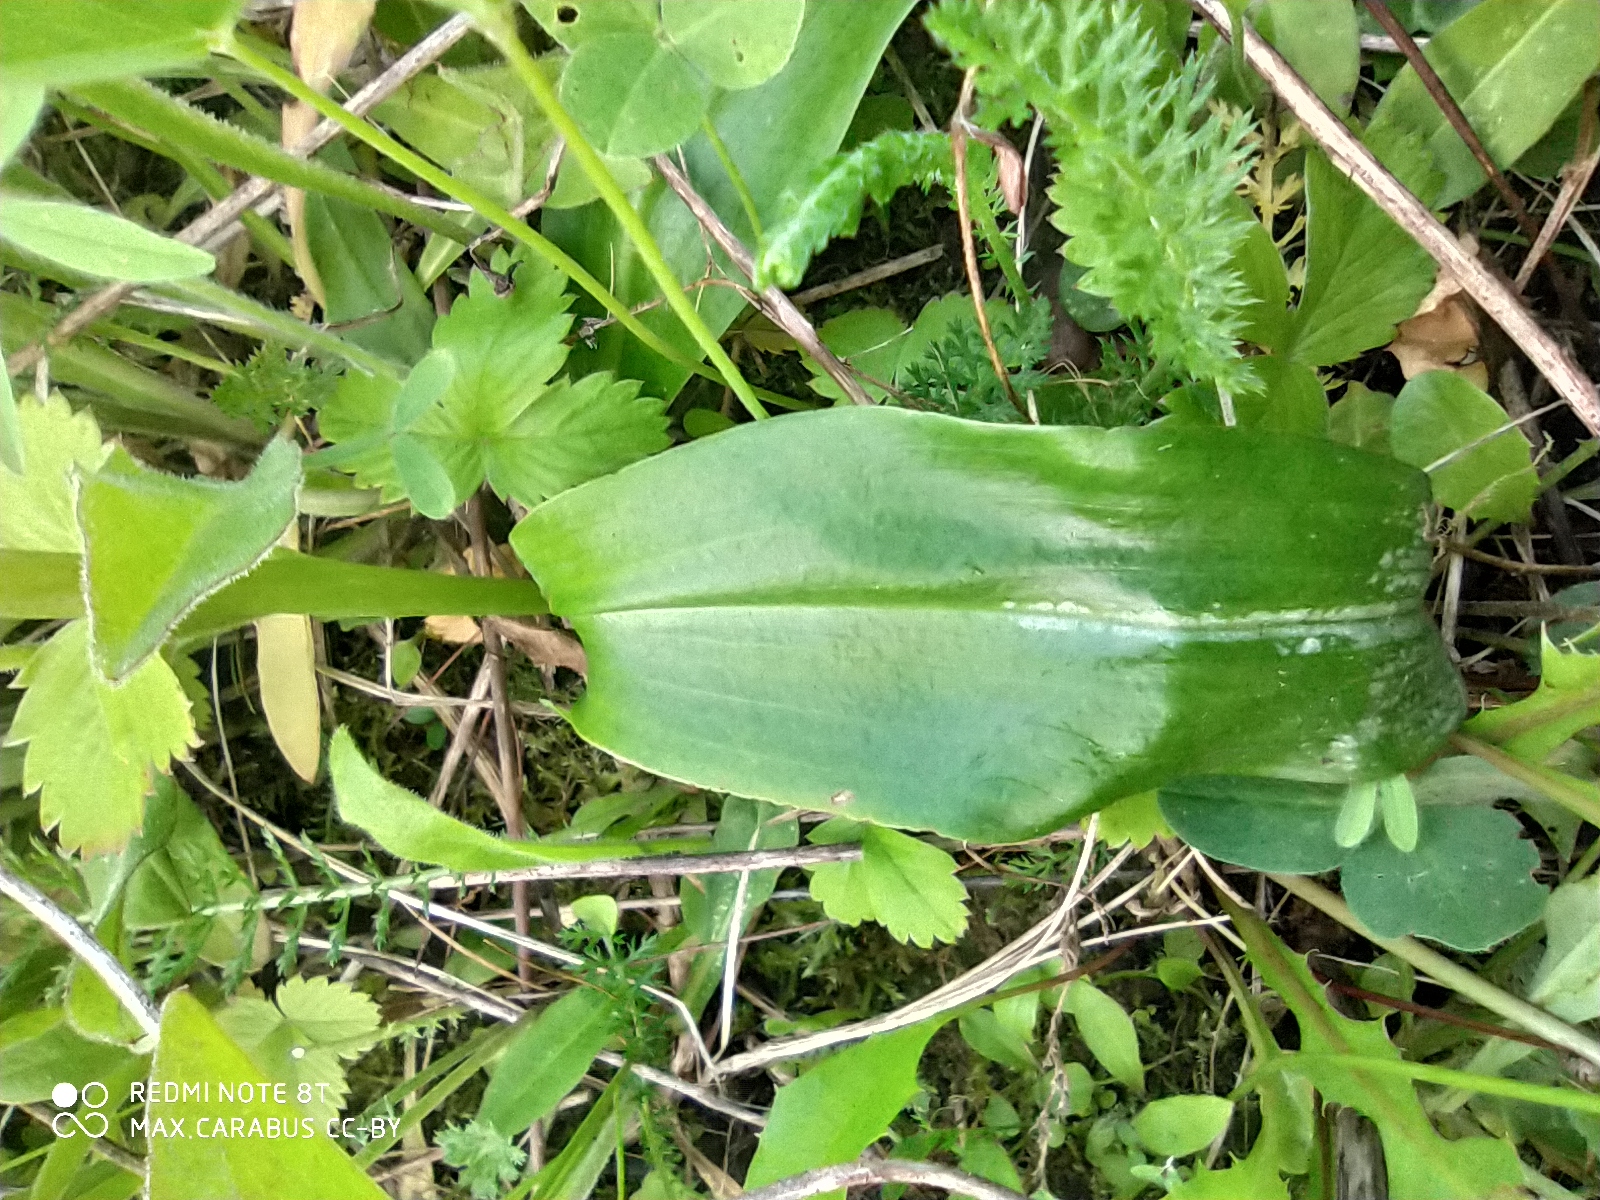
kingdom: Plantae
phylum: Tracheophyta
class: Liliopsida
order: Asparagales
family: Orchidaceae
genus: Platanthera
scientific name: Platanthera bifolia
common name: Lesser butterfly-orchid
